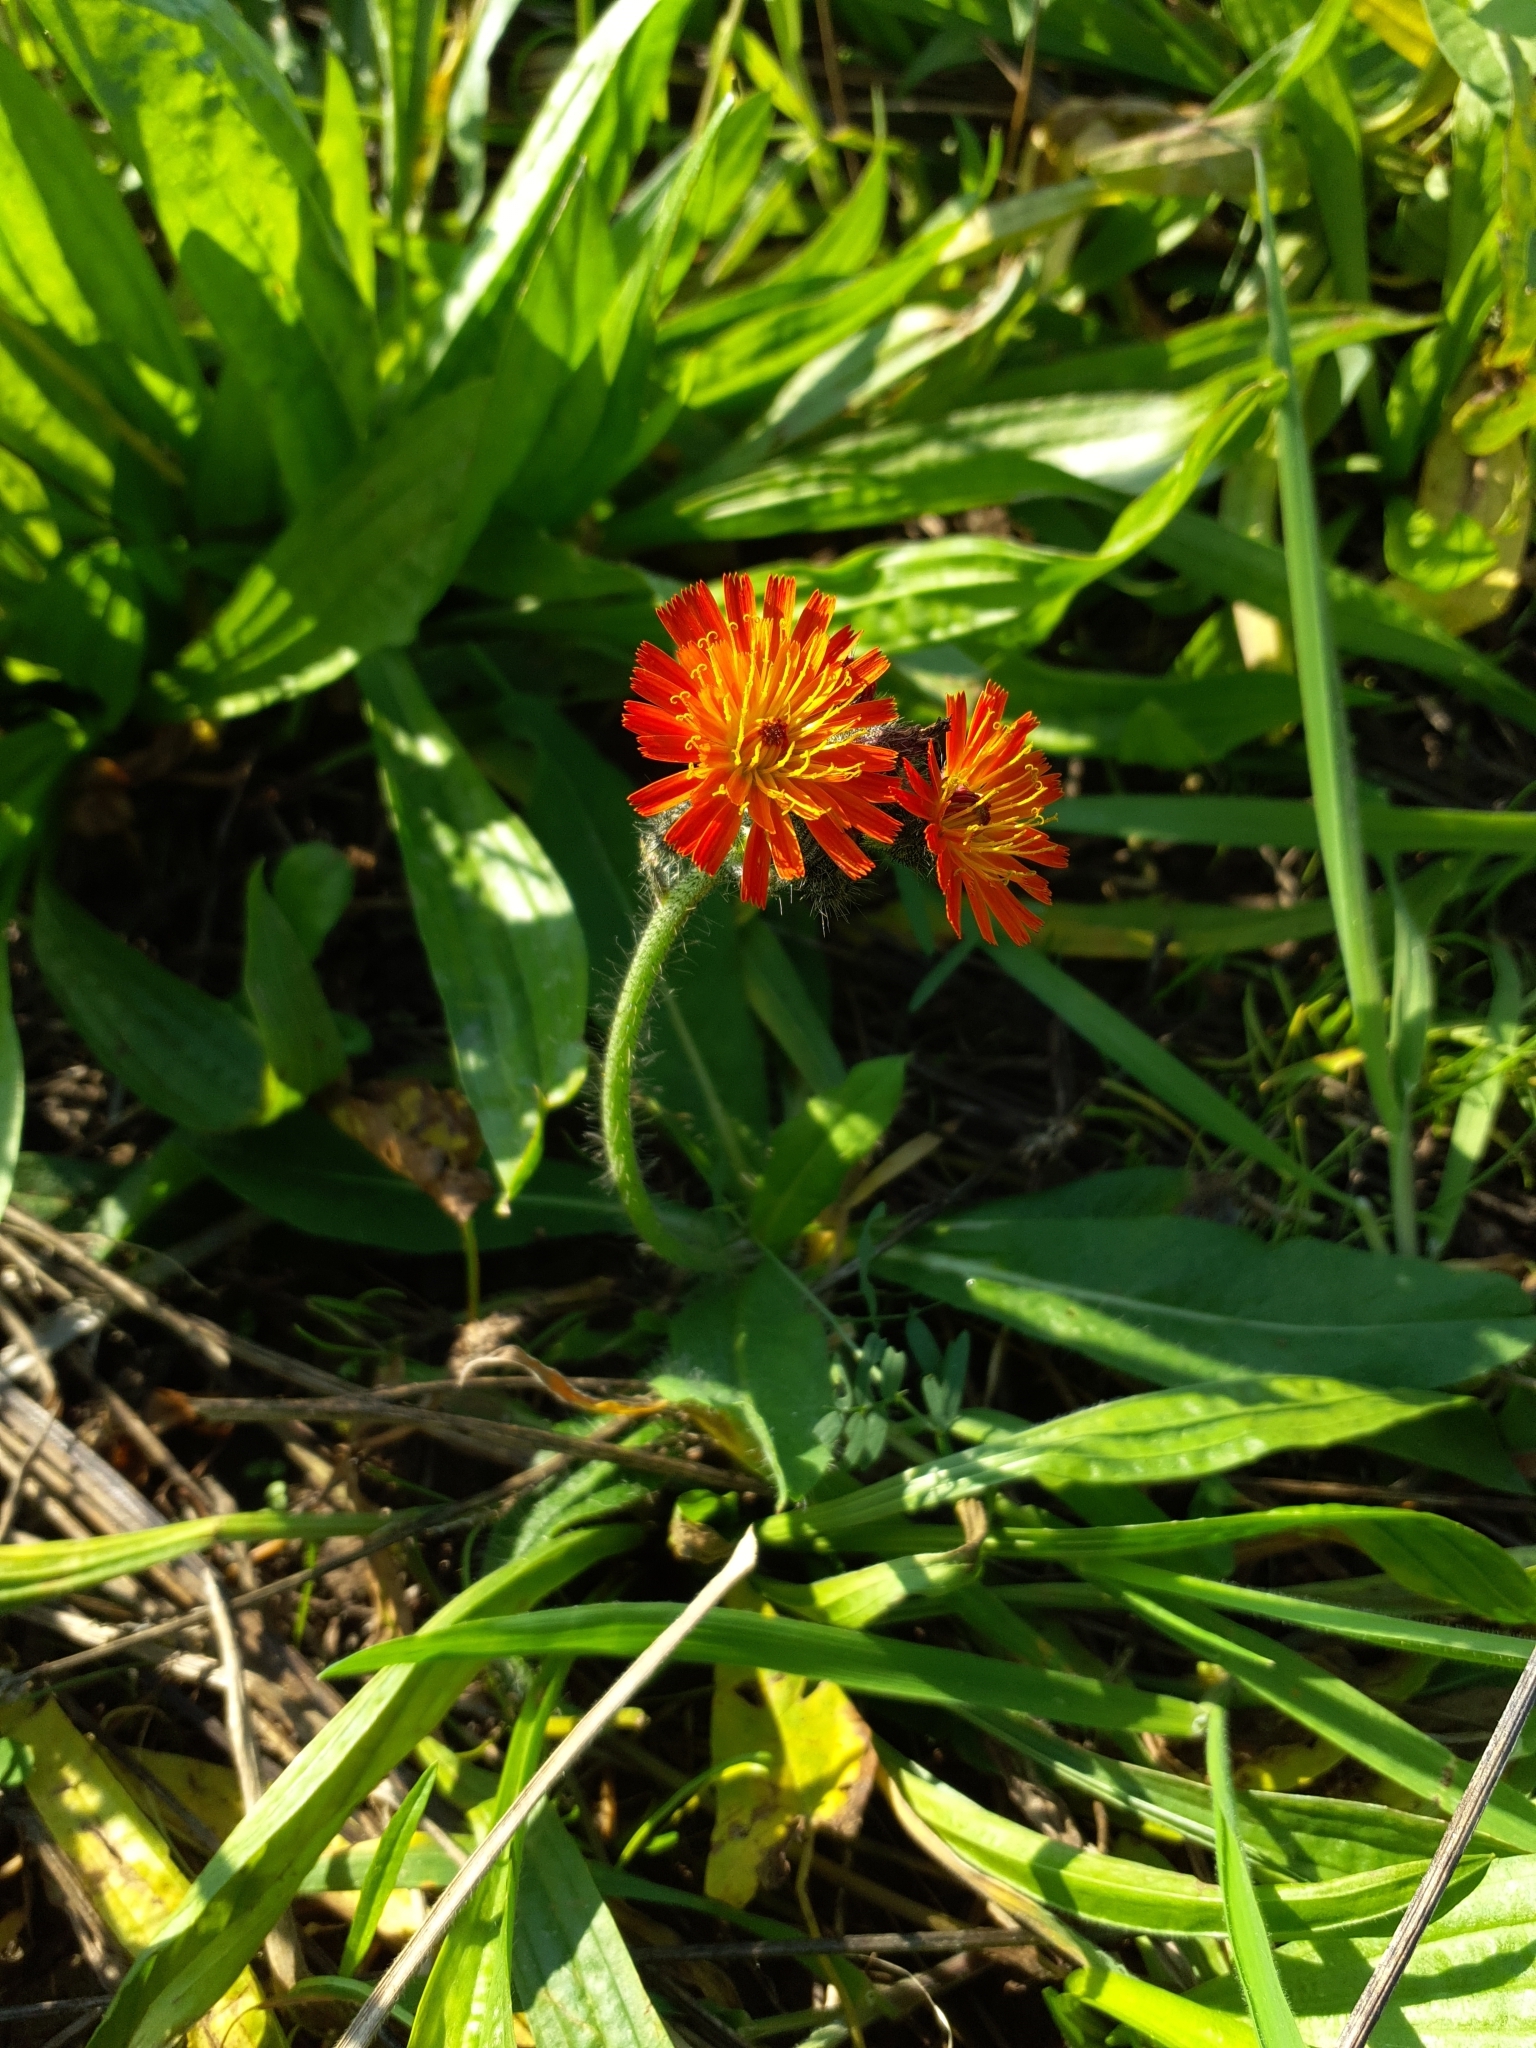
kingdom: Plantae
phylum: Tracheophyta
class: Magnoliopsida
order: Asterales
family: Asteraceae
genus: Pilosella
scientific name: Pilosella aurantiaca
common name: Fox-and-cubs
